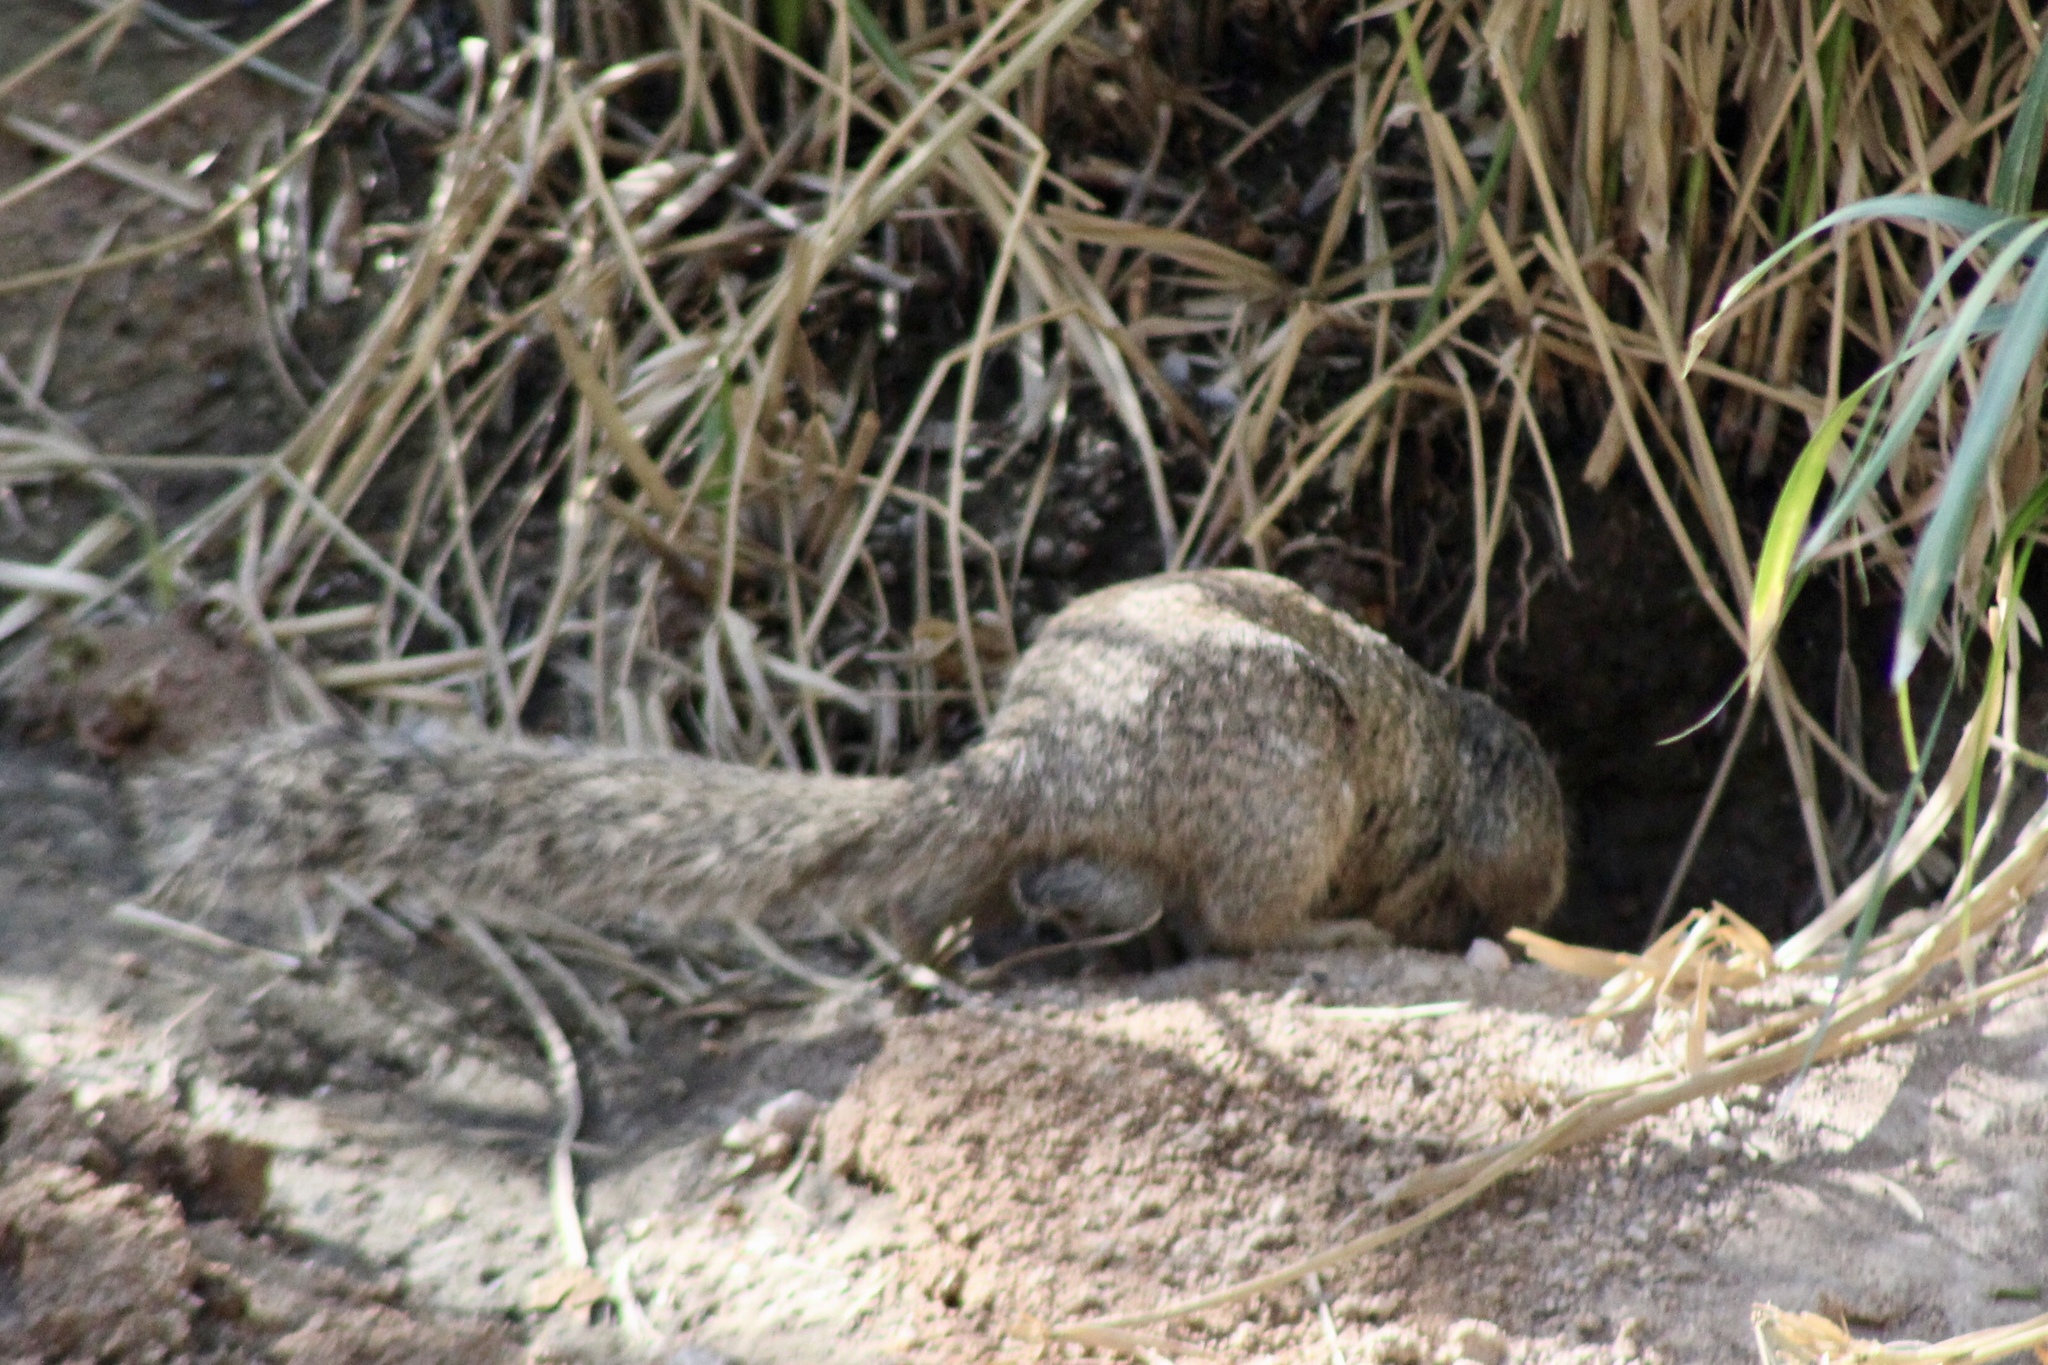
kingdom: Animalia
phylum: Chordata
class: Mammalia
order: Rodentia
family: Sciuridae
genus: Otospermophilus
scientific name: Otospermophilus variegatus
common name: Rock squirrel
